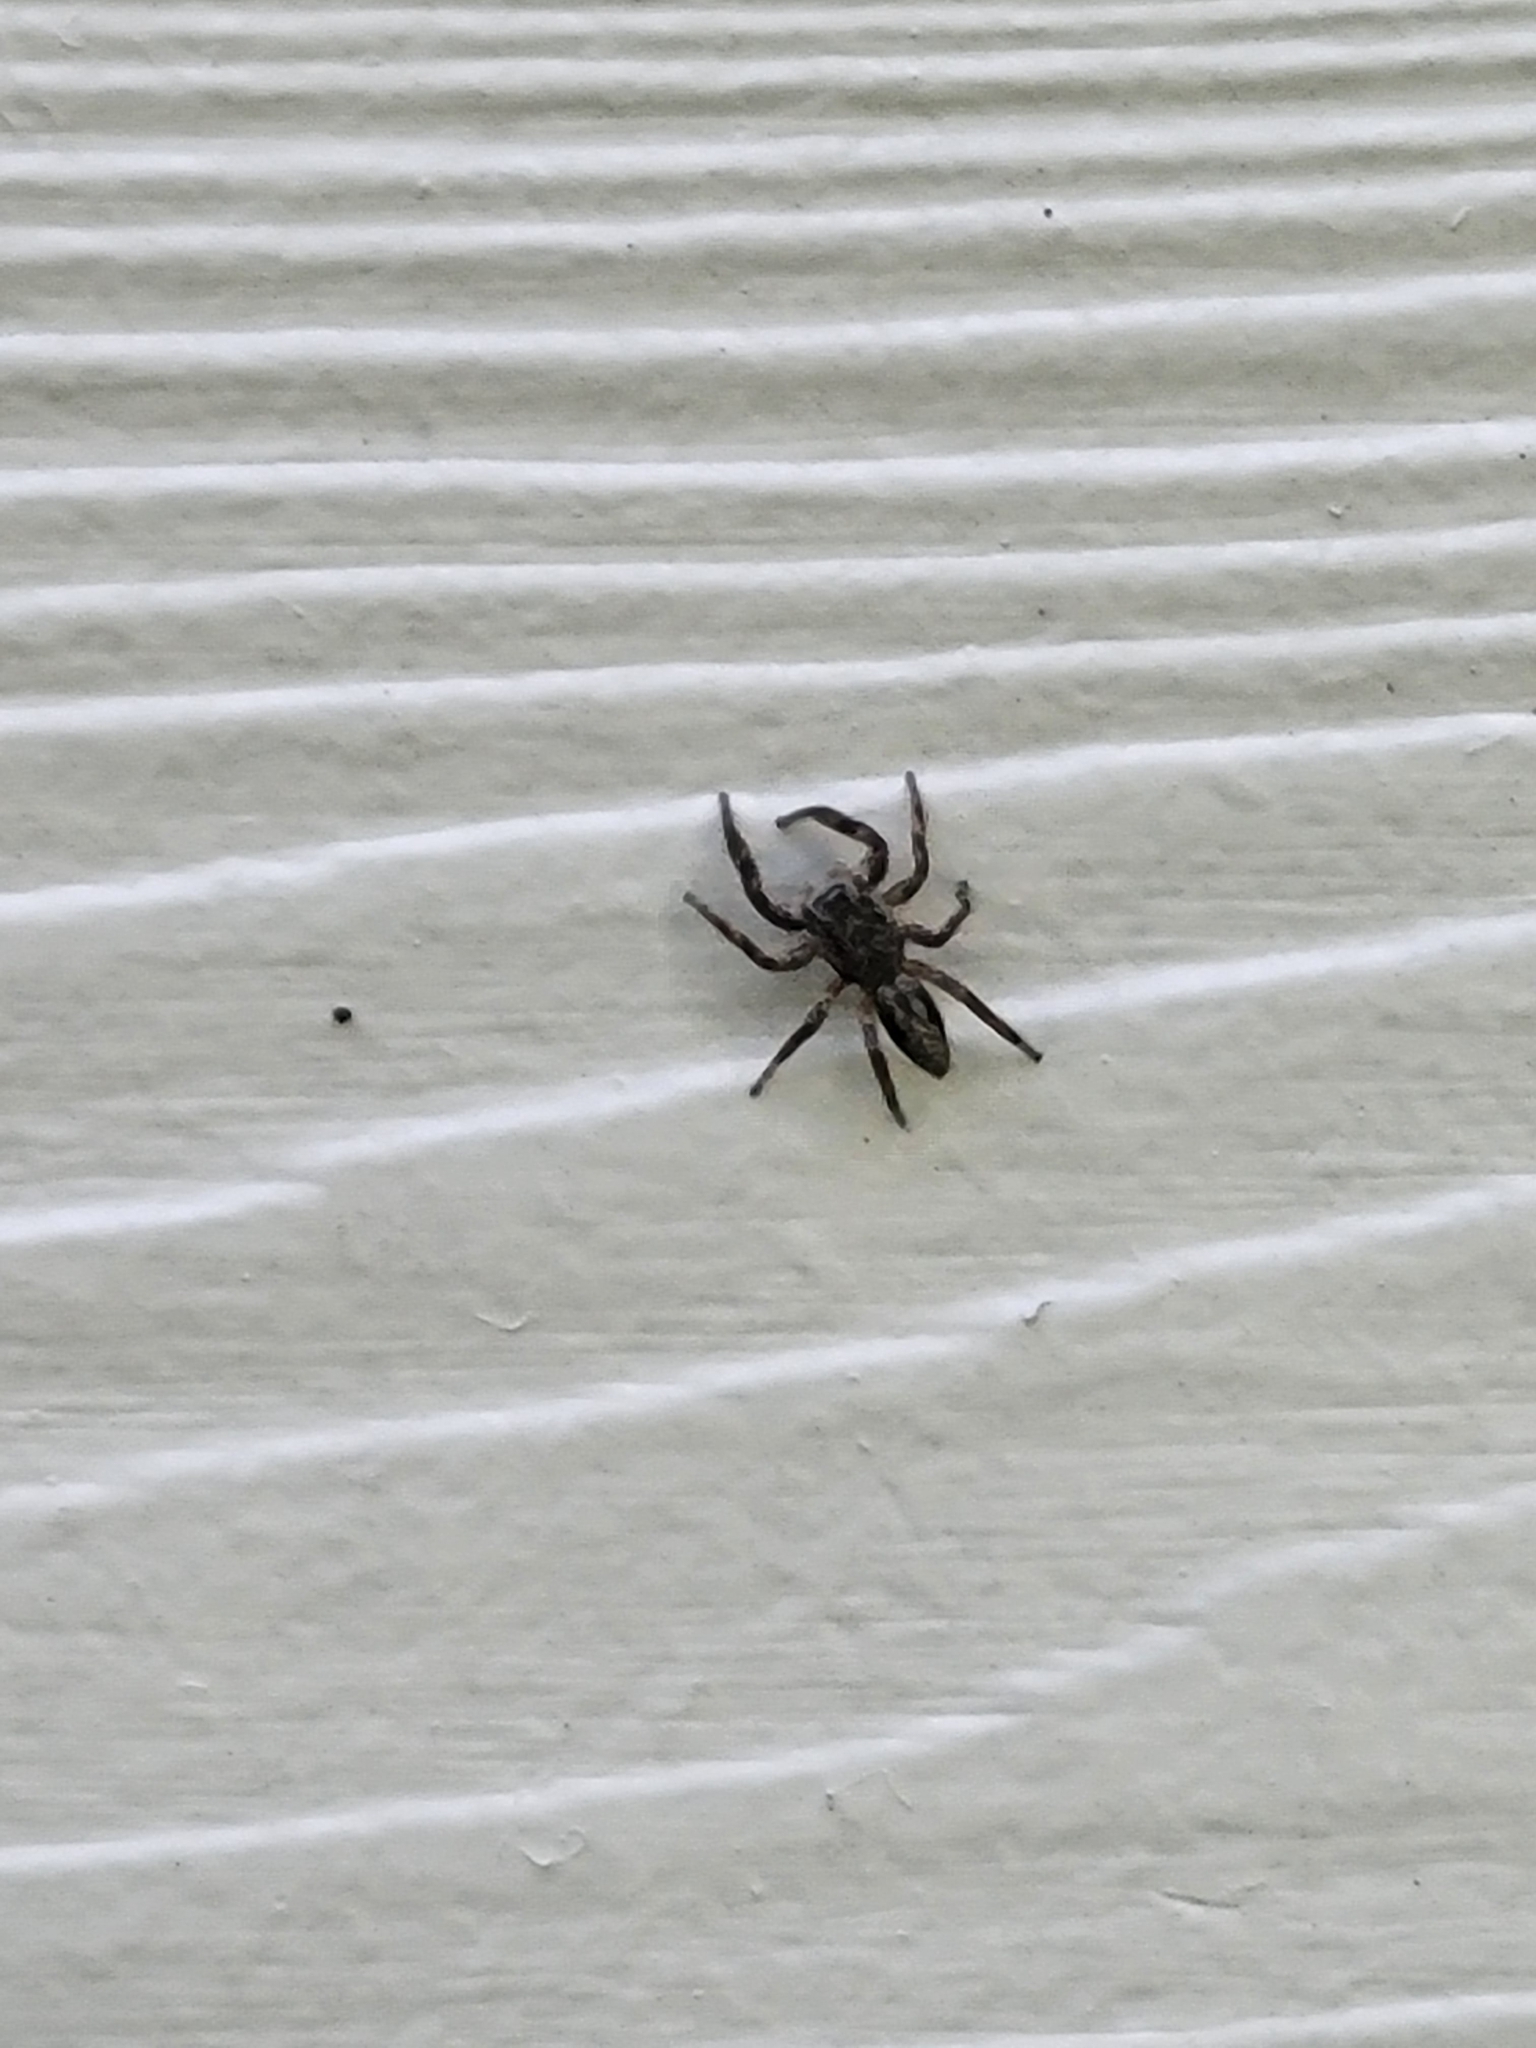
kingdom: Animalia
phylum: Arthropoda
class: Arachnida
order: Araneae
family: Salticidae
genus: Platycryptus
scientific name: Platycryptus undatus
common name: Tan jumping spider
